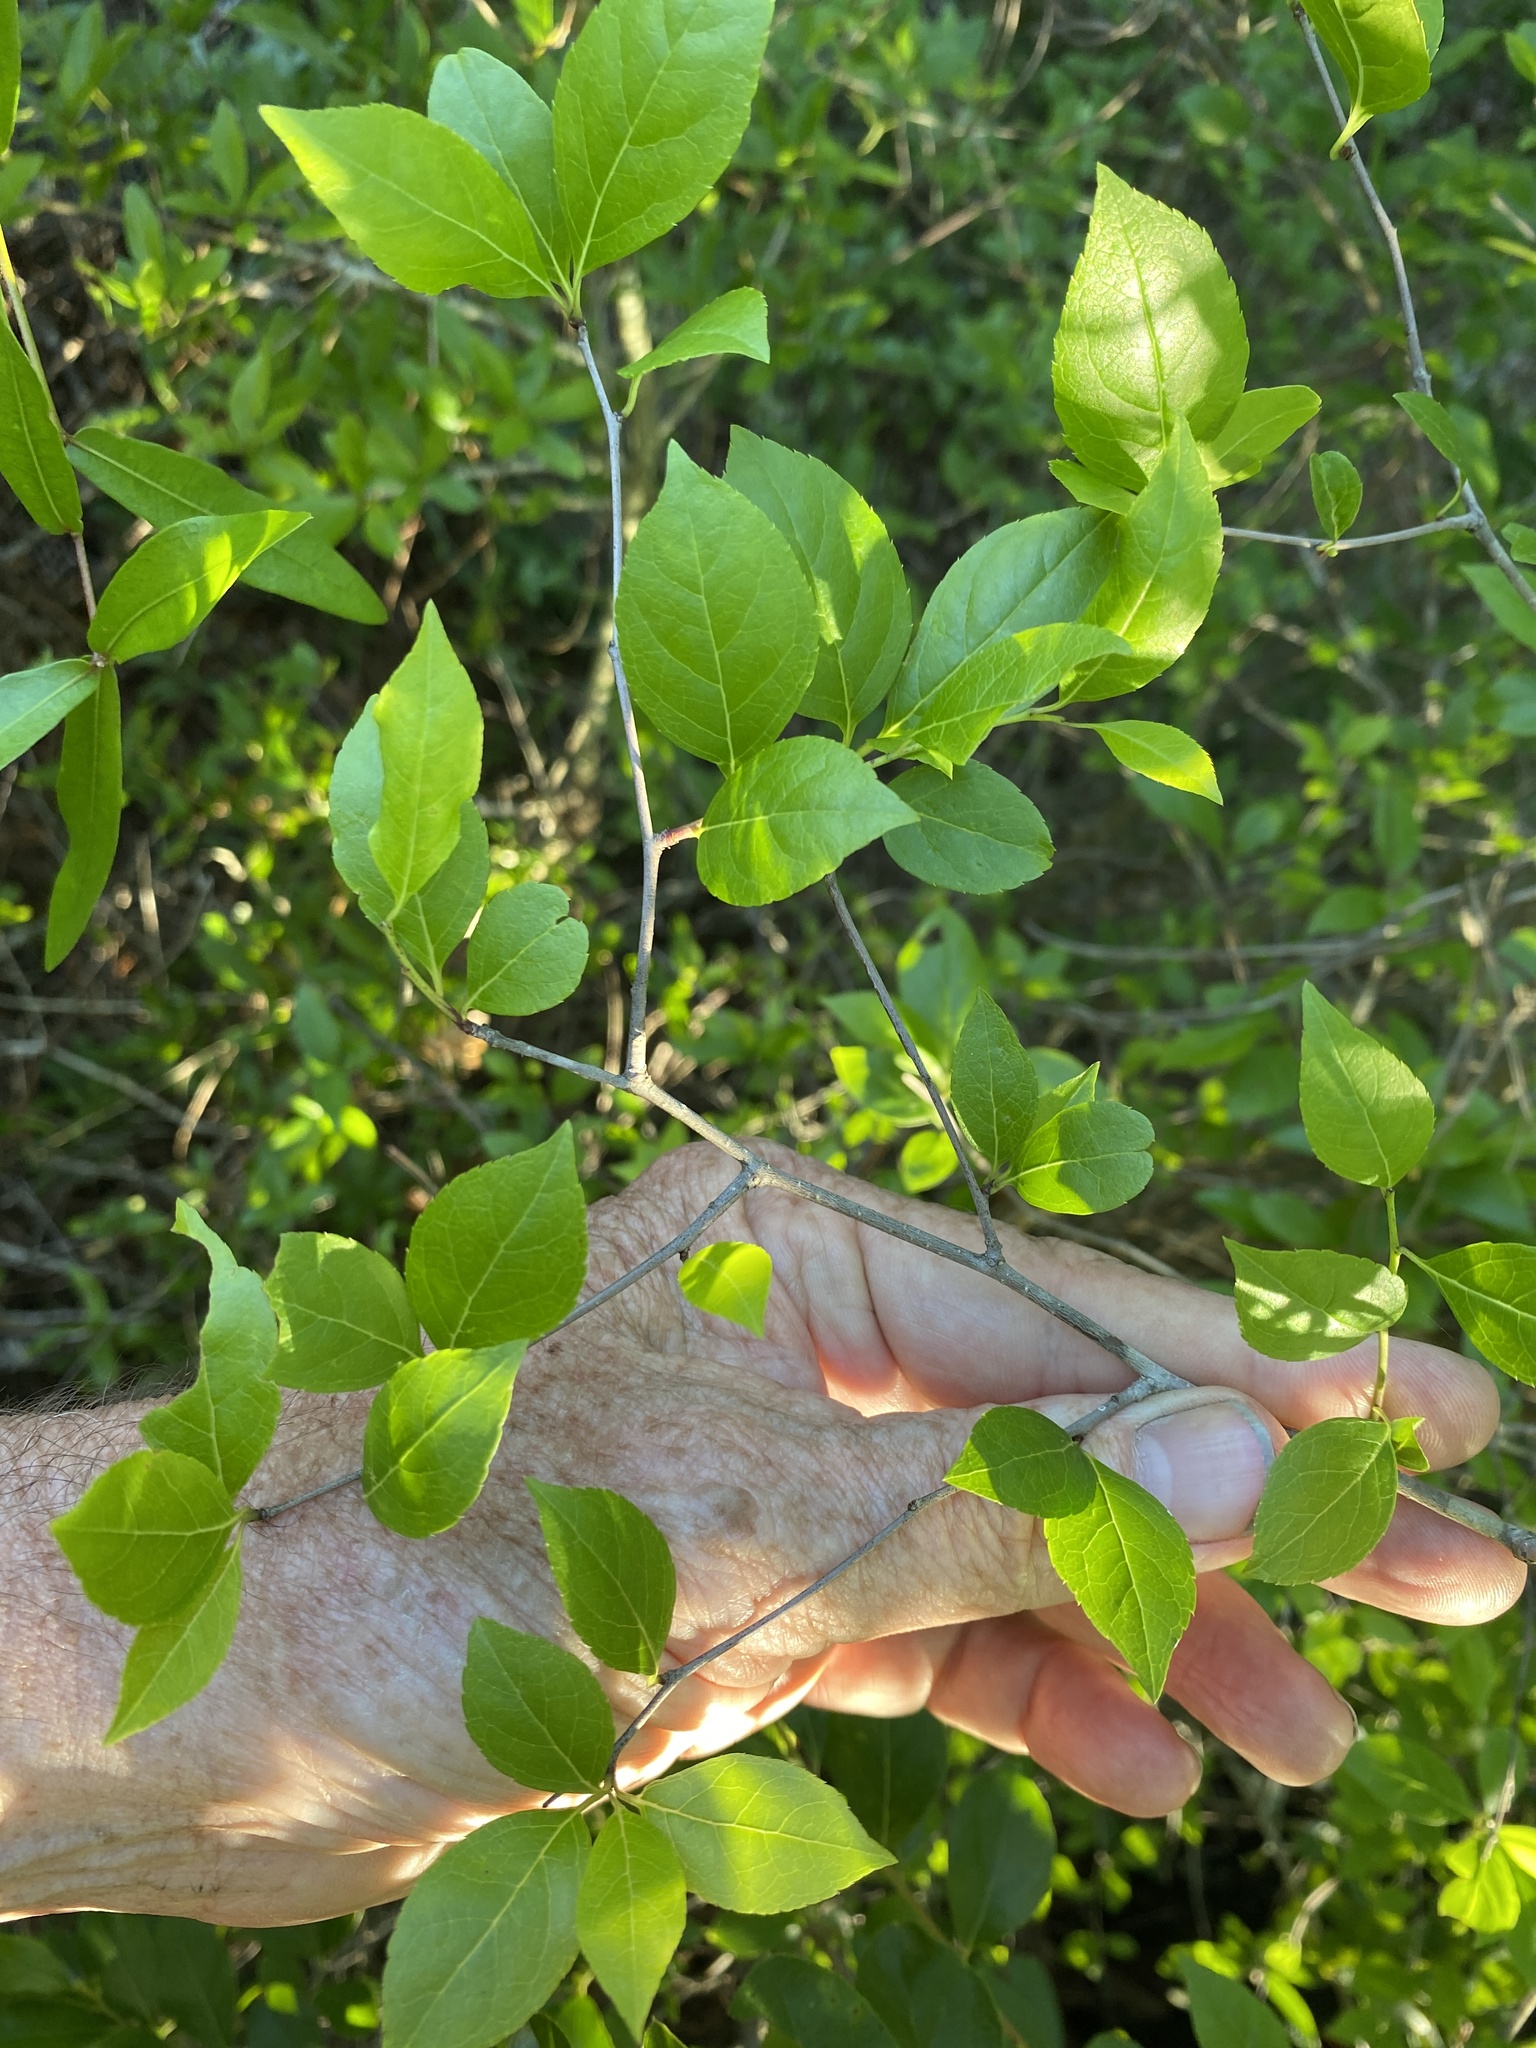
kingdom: Plantae
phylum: Tracheophyta
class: Magnoliopsida
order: Aquifoliales
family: Aquifoliaceae
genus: Ilex
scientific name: Ilex ambigua
